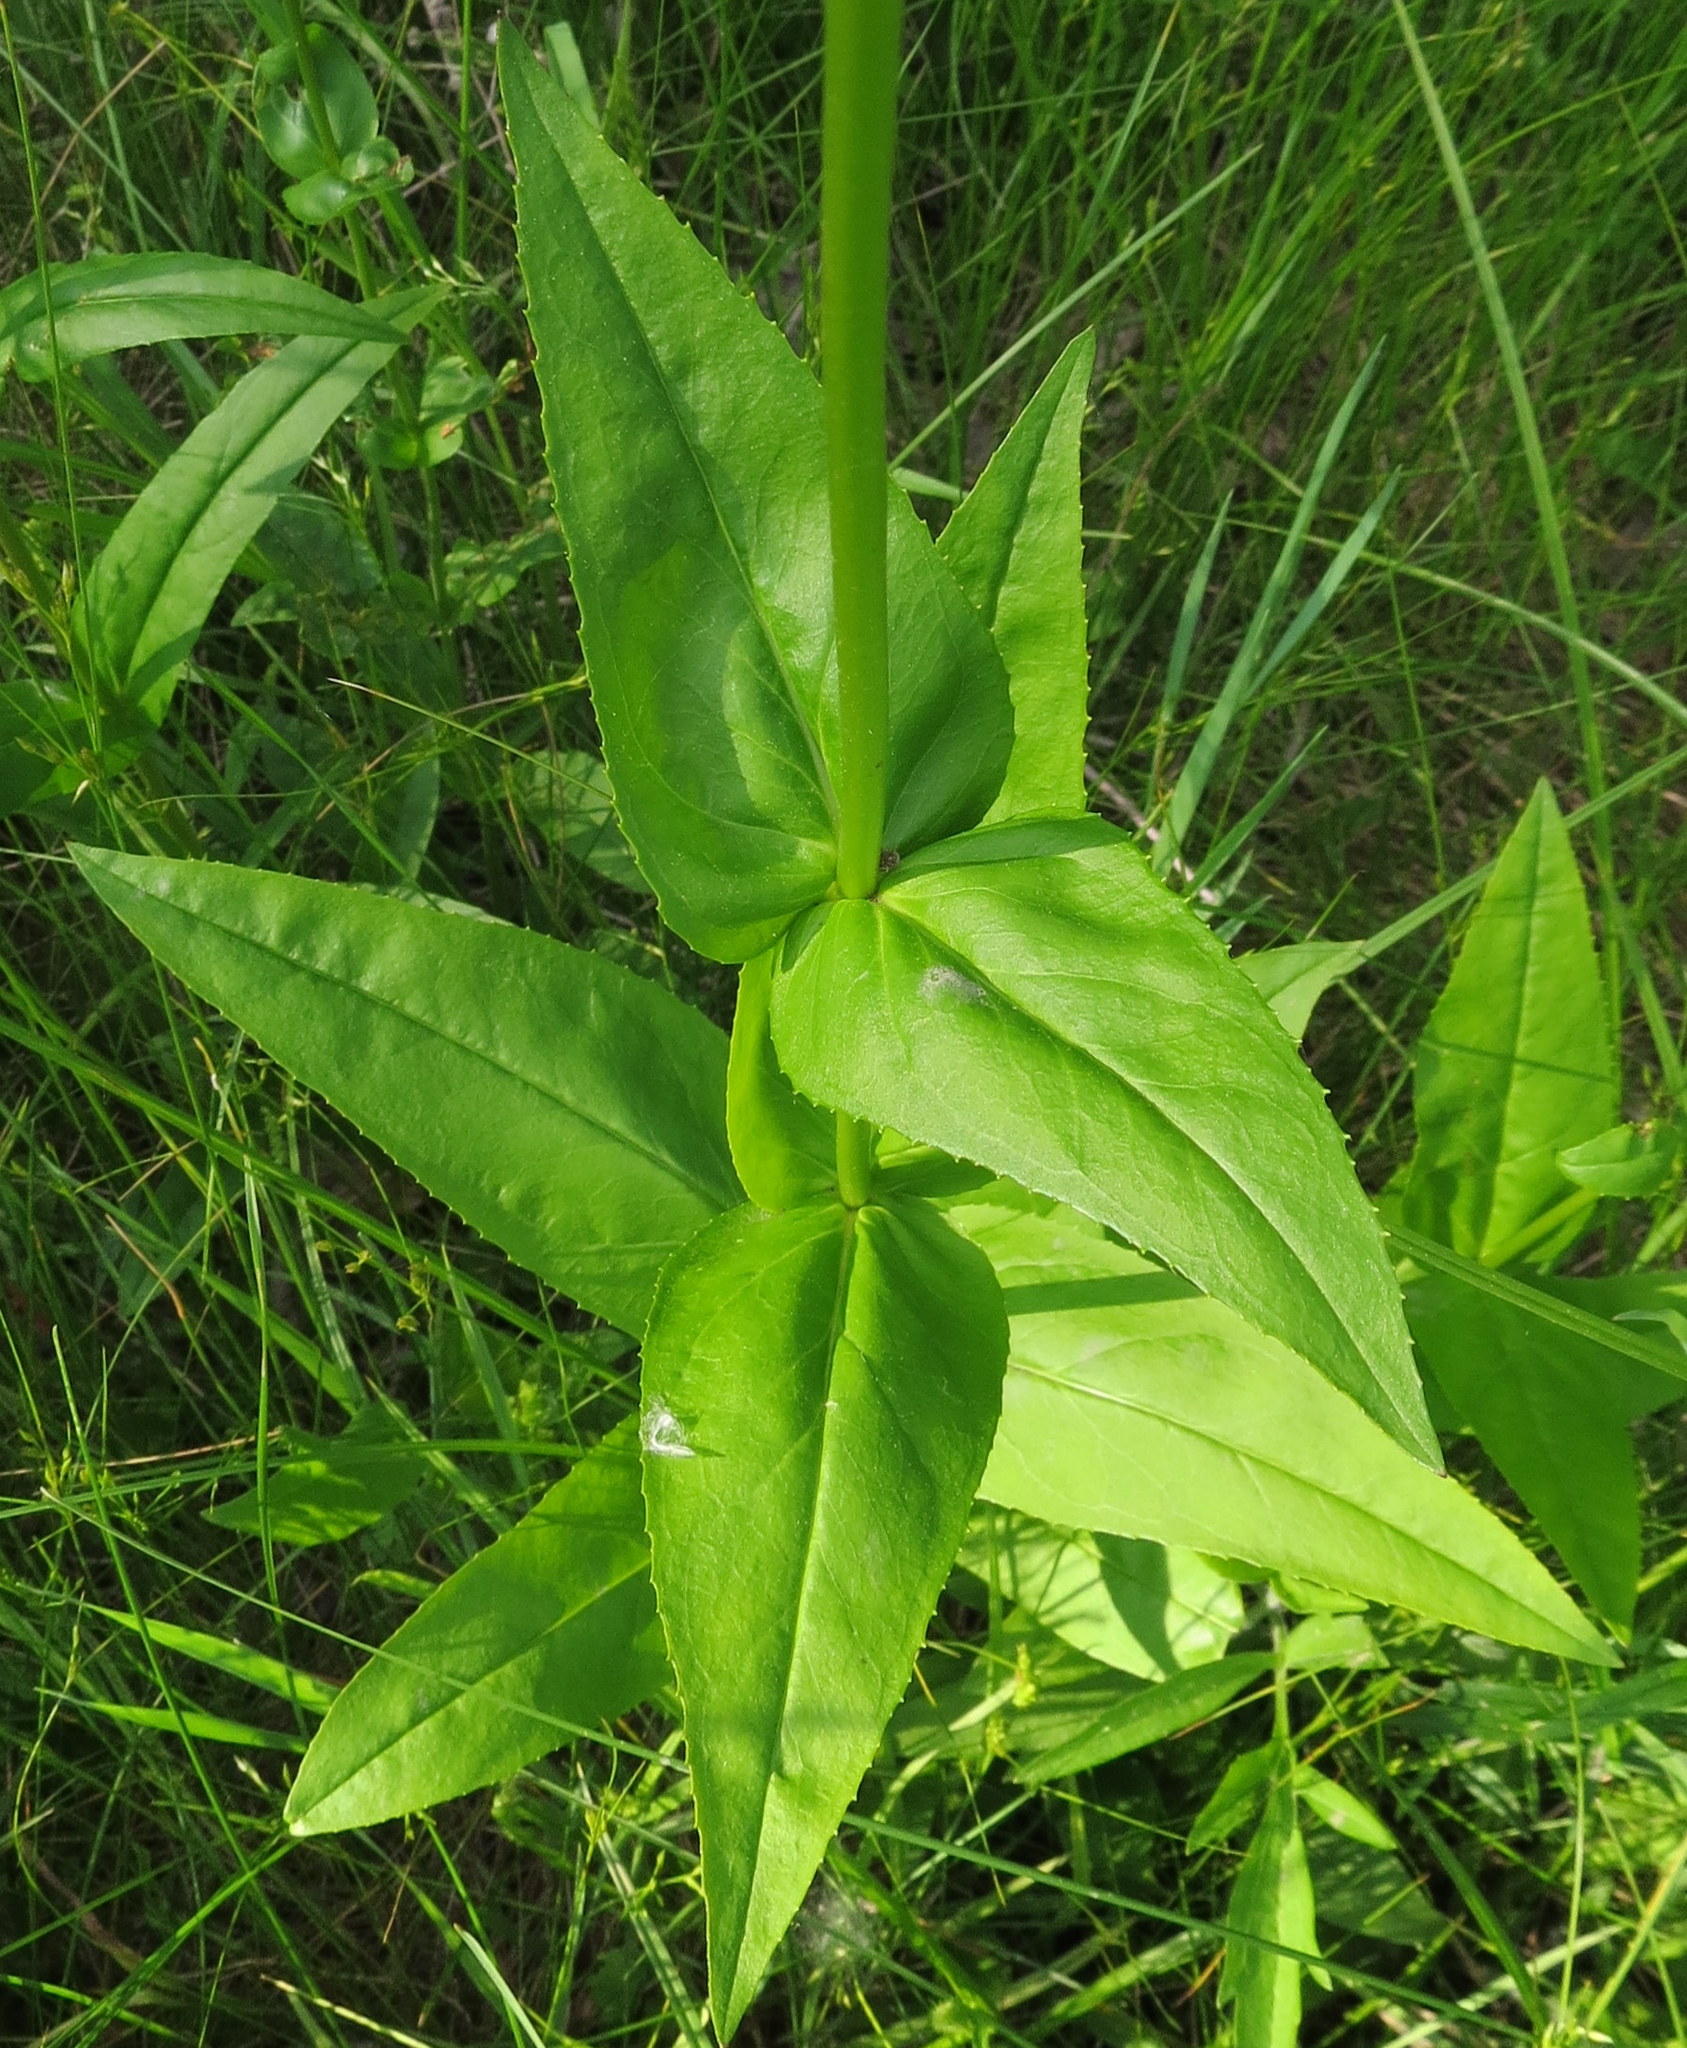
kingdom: Plantae
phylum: Tracheophyta
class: Magnoliopsida
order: Lamiales
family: Plantaginaceae
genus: Penstemon
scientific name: Penstemon digitalis
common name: Foxglove beardtongue
